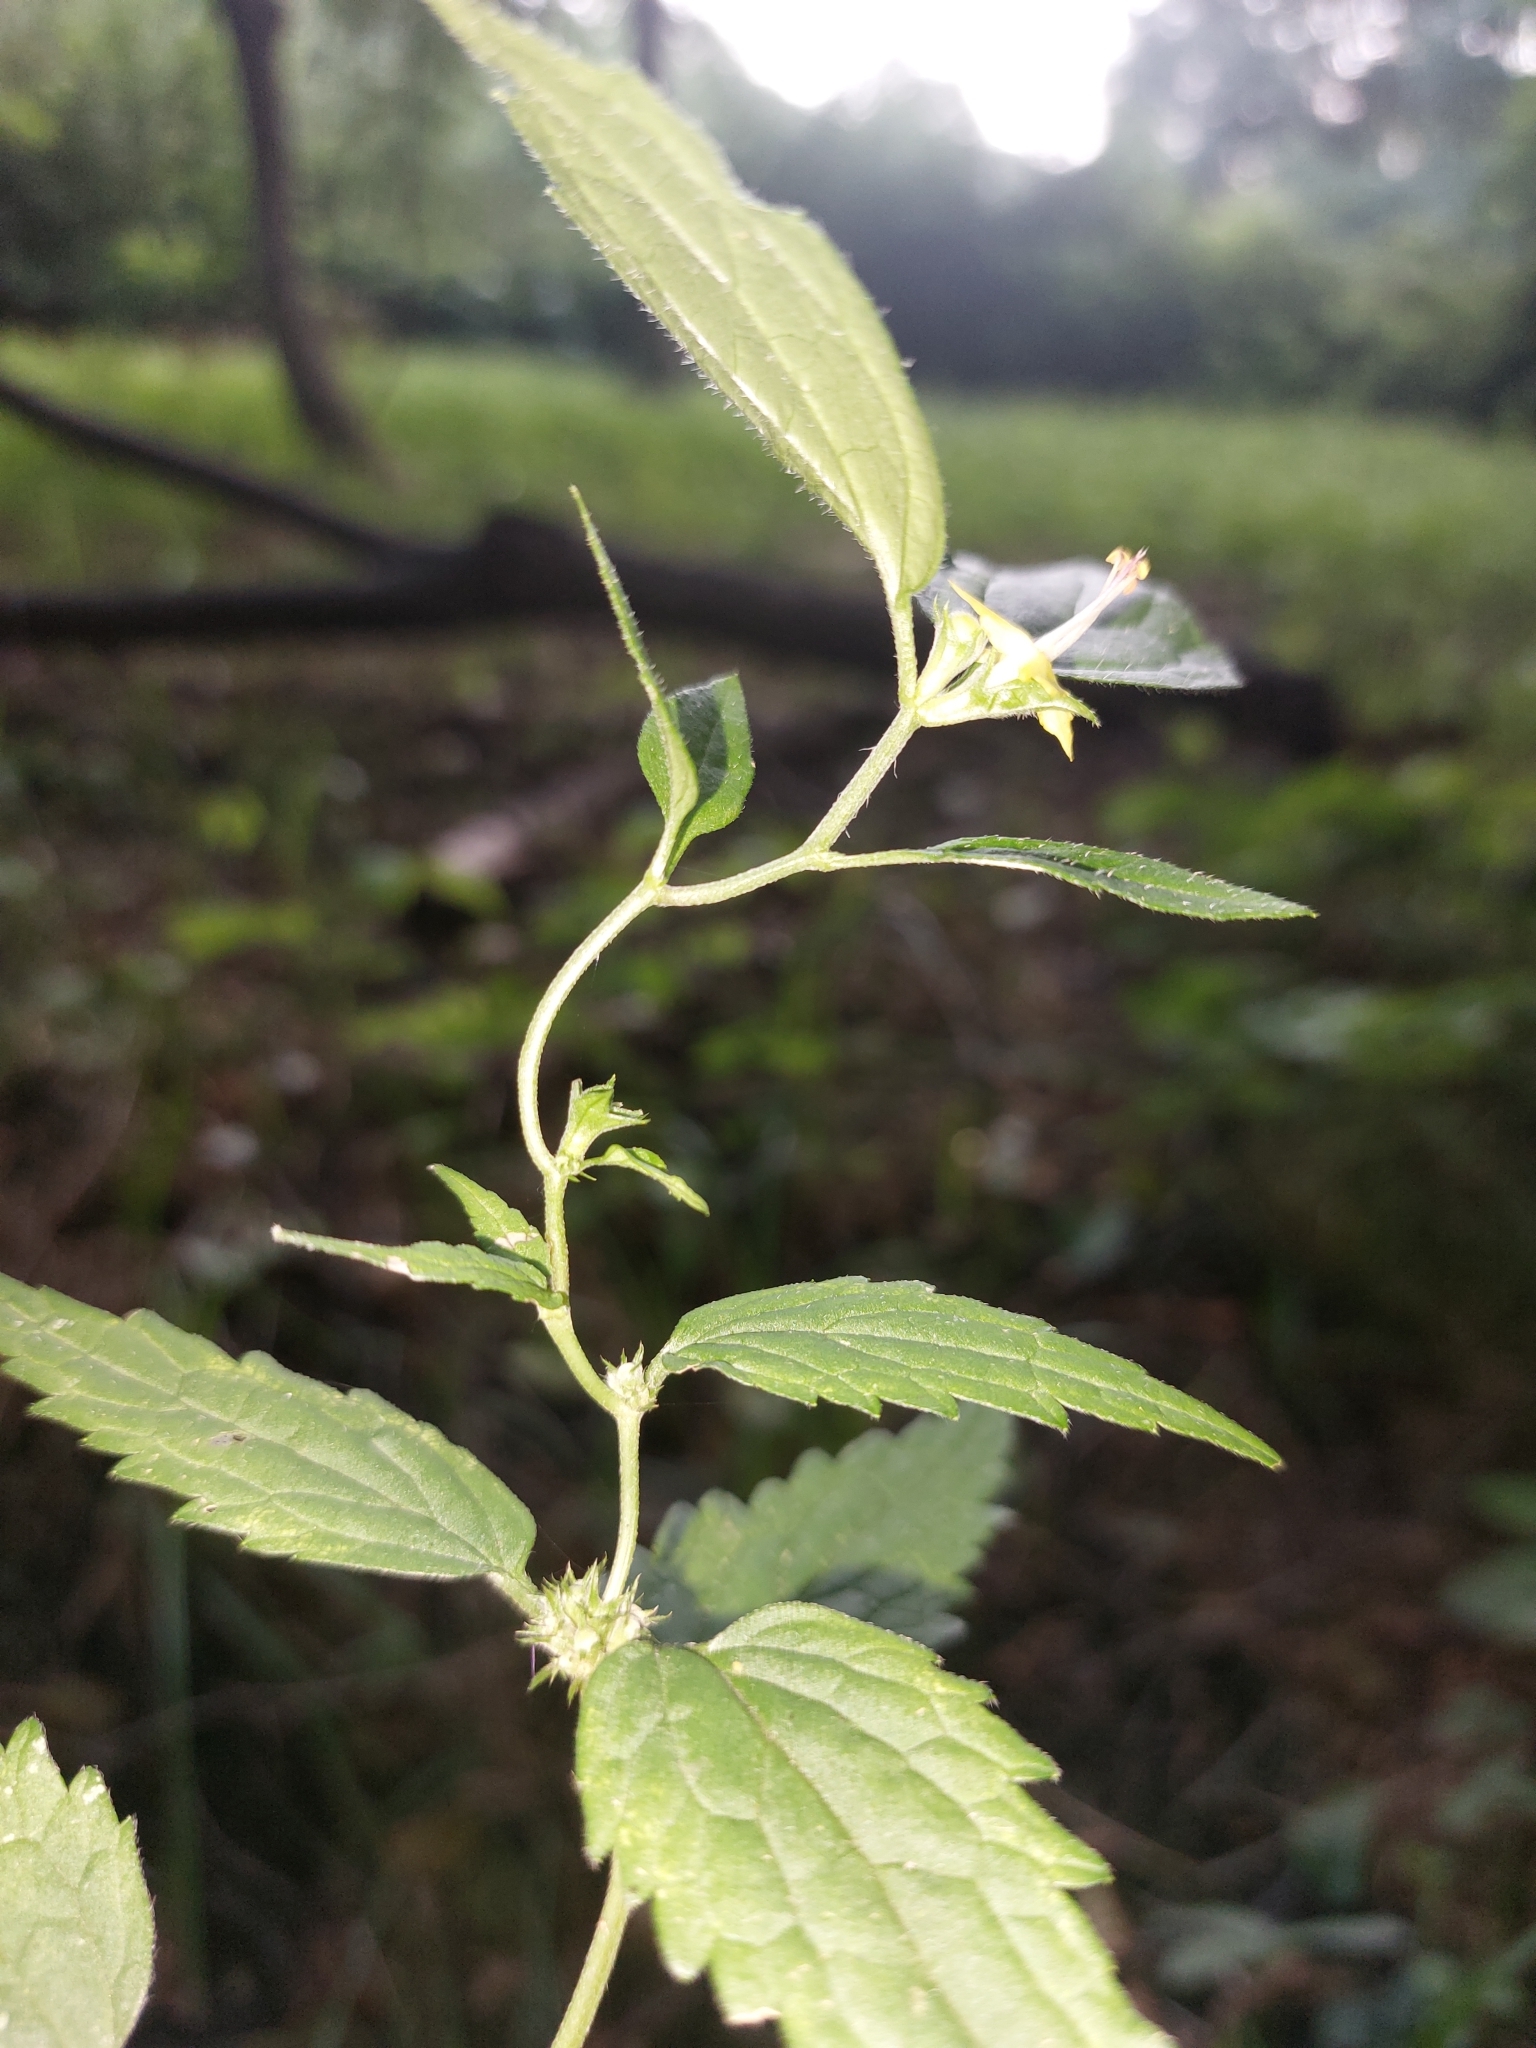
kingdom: Plantae
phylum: Tracheophyta
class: Magnoliopsida
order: Lamiales
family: Lamiaceae
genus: Lamium
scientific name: Lamium galeobdolon
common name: Yellow archangel
